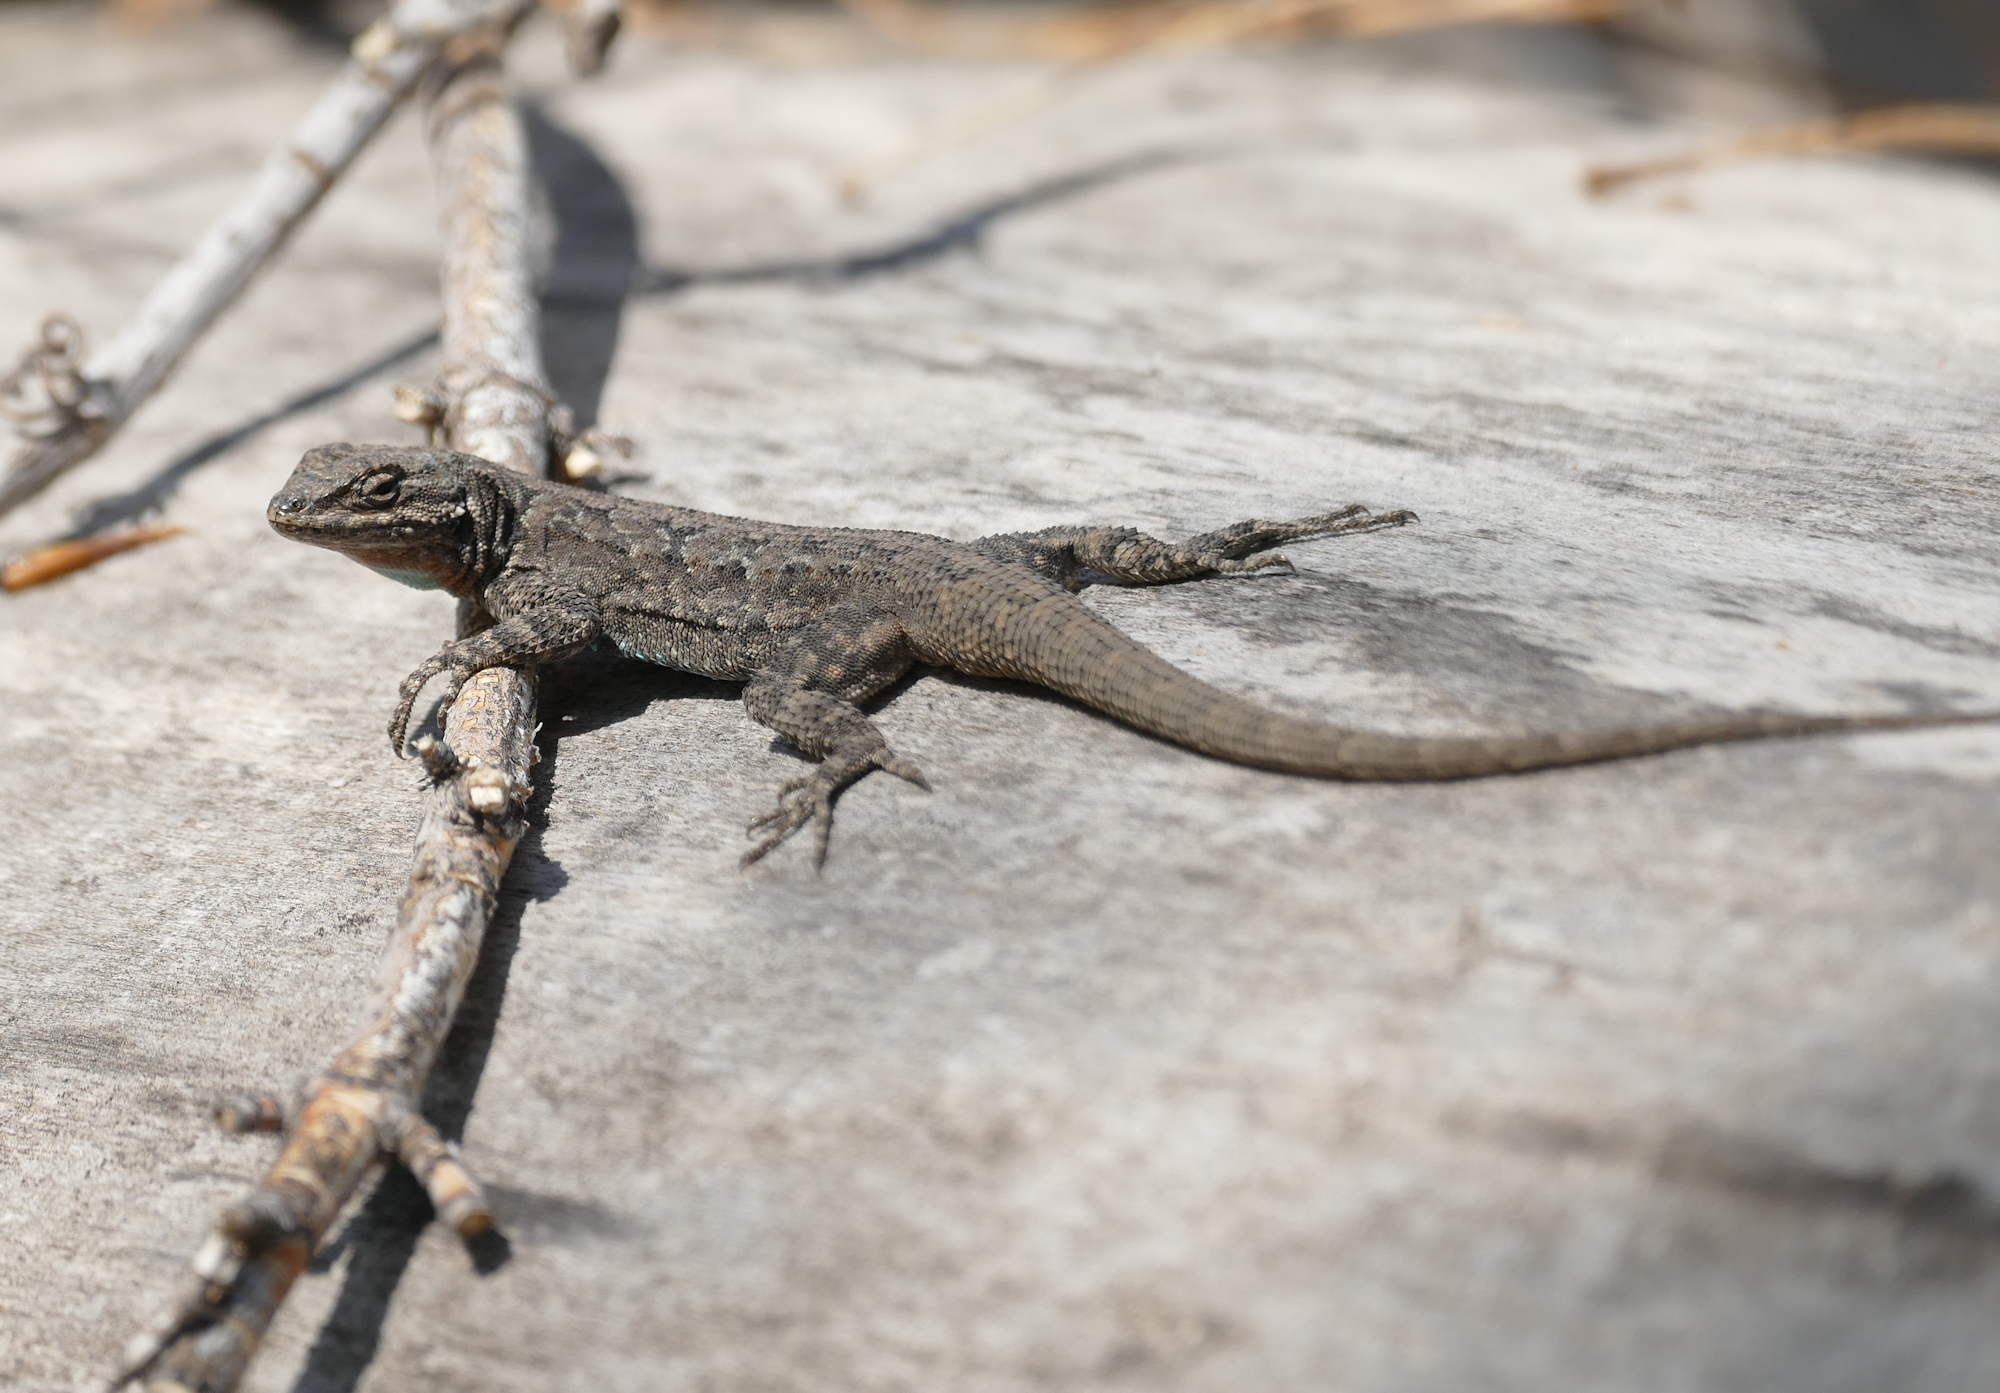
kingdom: Animalia
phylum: Chordata
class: Squamata
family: Phrynosomatidae
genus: Urosaurus
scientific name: Urosaurus ornatus
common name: Ornate tree lizard
